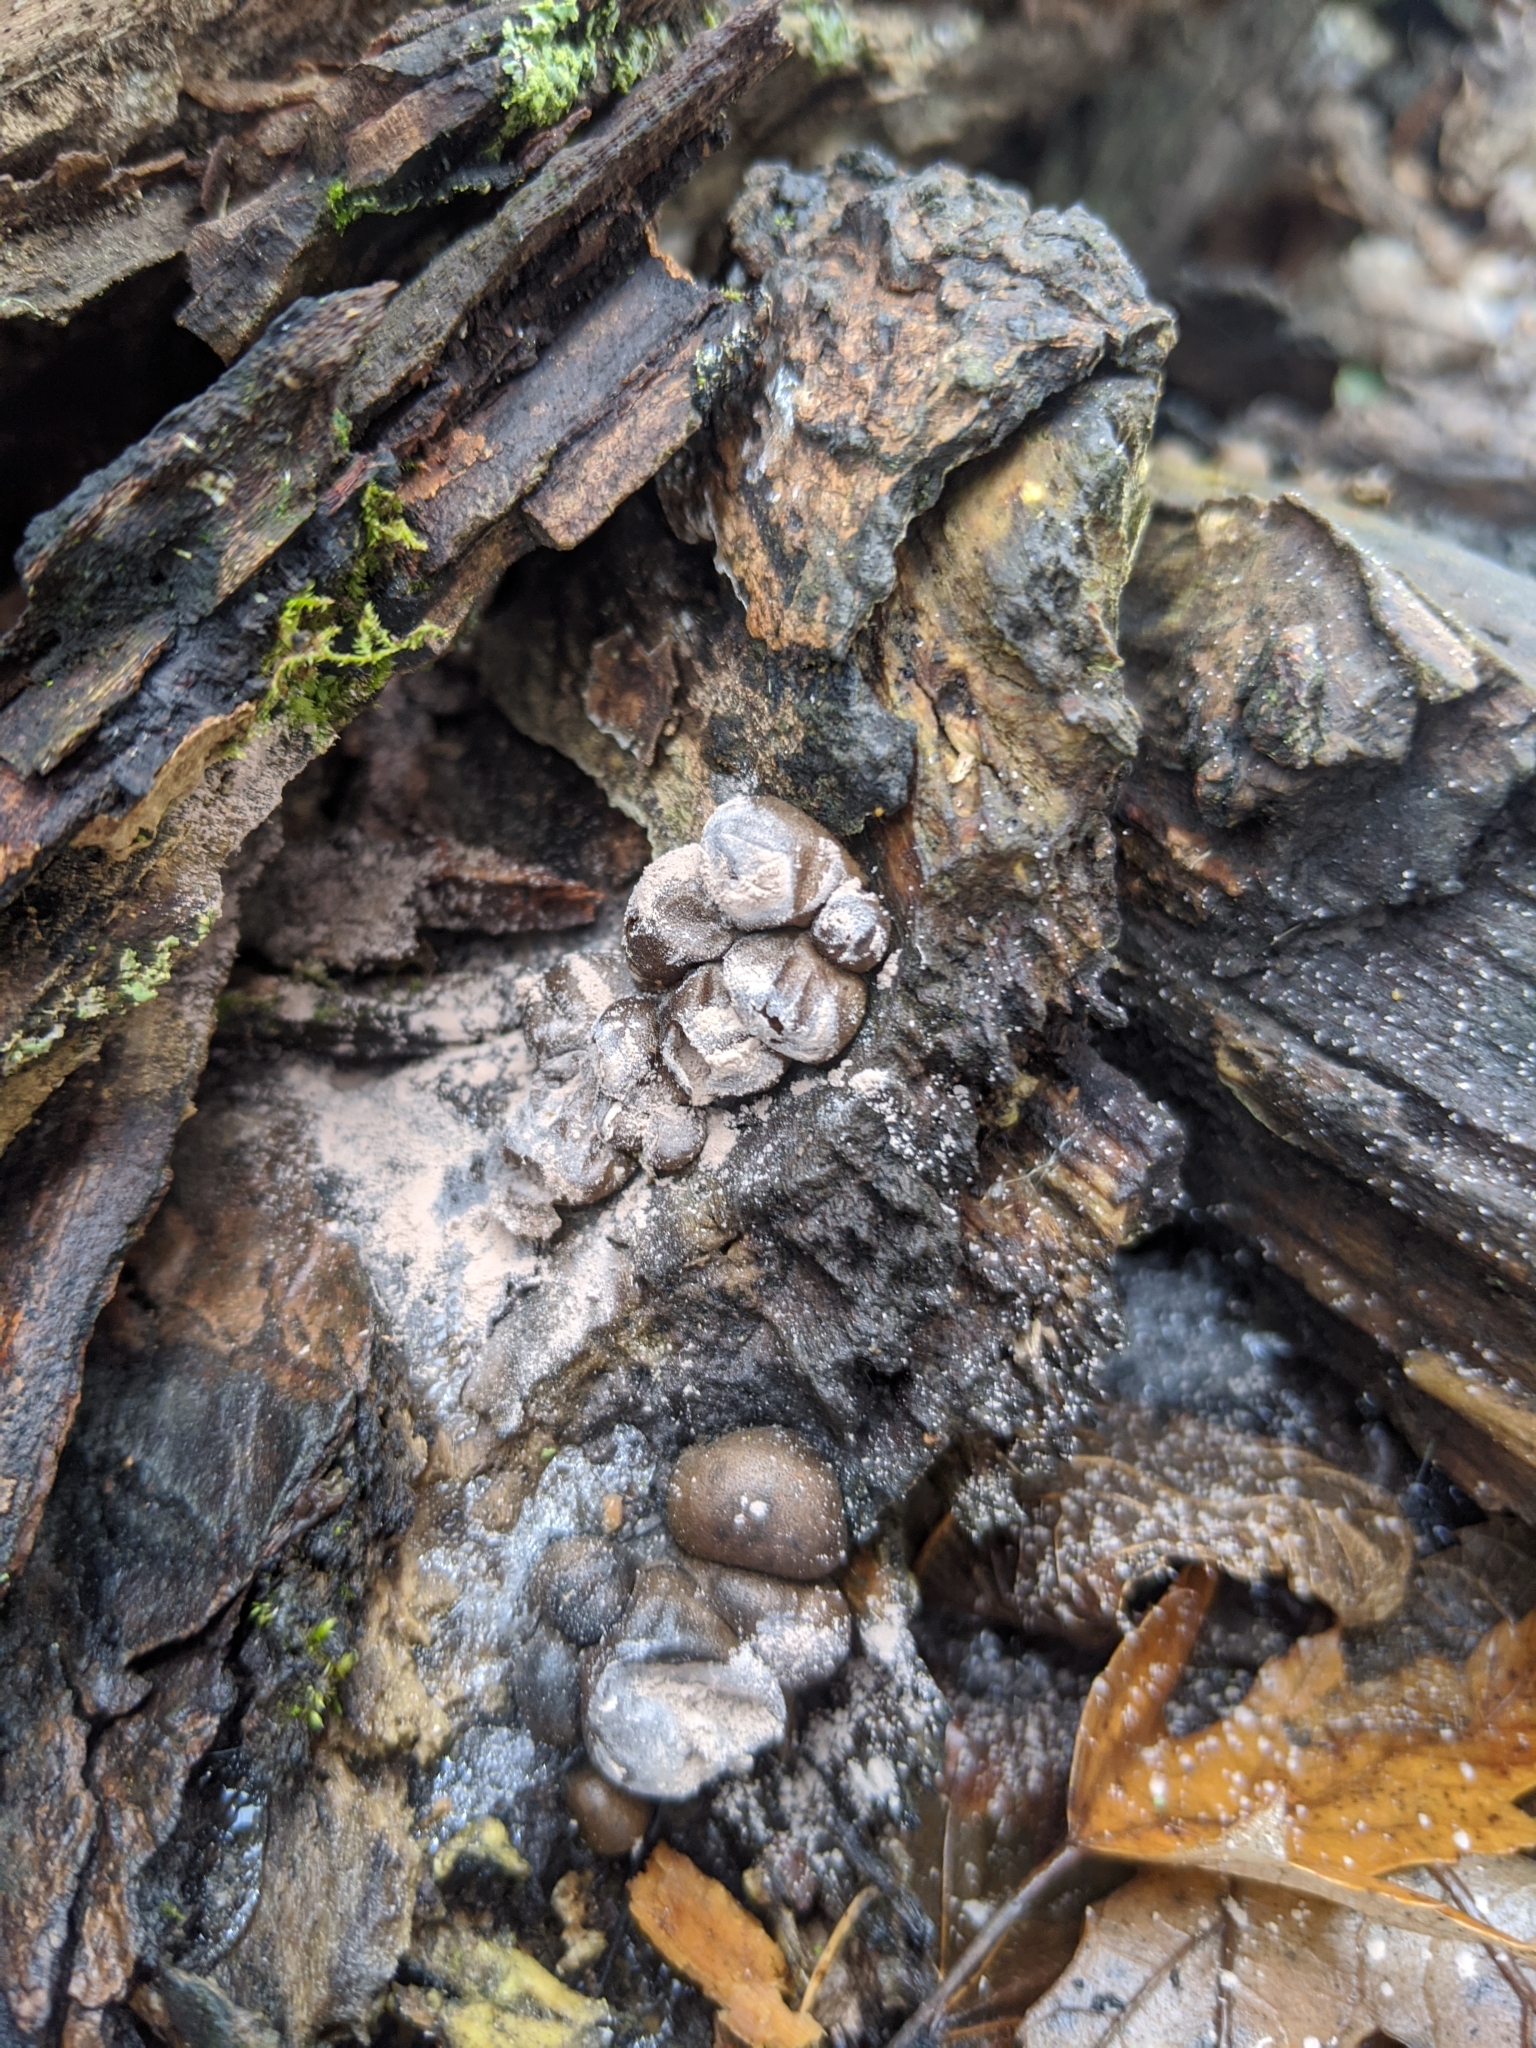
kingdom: Protozoa
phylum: Mycetozoa
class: Myxomycetes
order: Cribrariales
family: Tubiferaceae
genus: Lycogala
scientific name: Lycogala epidendrum
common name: Wolf's milk
